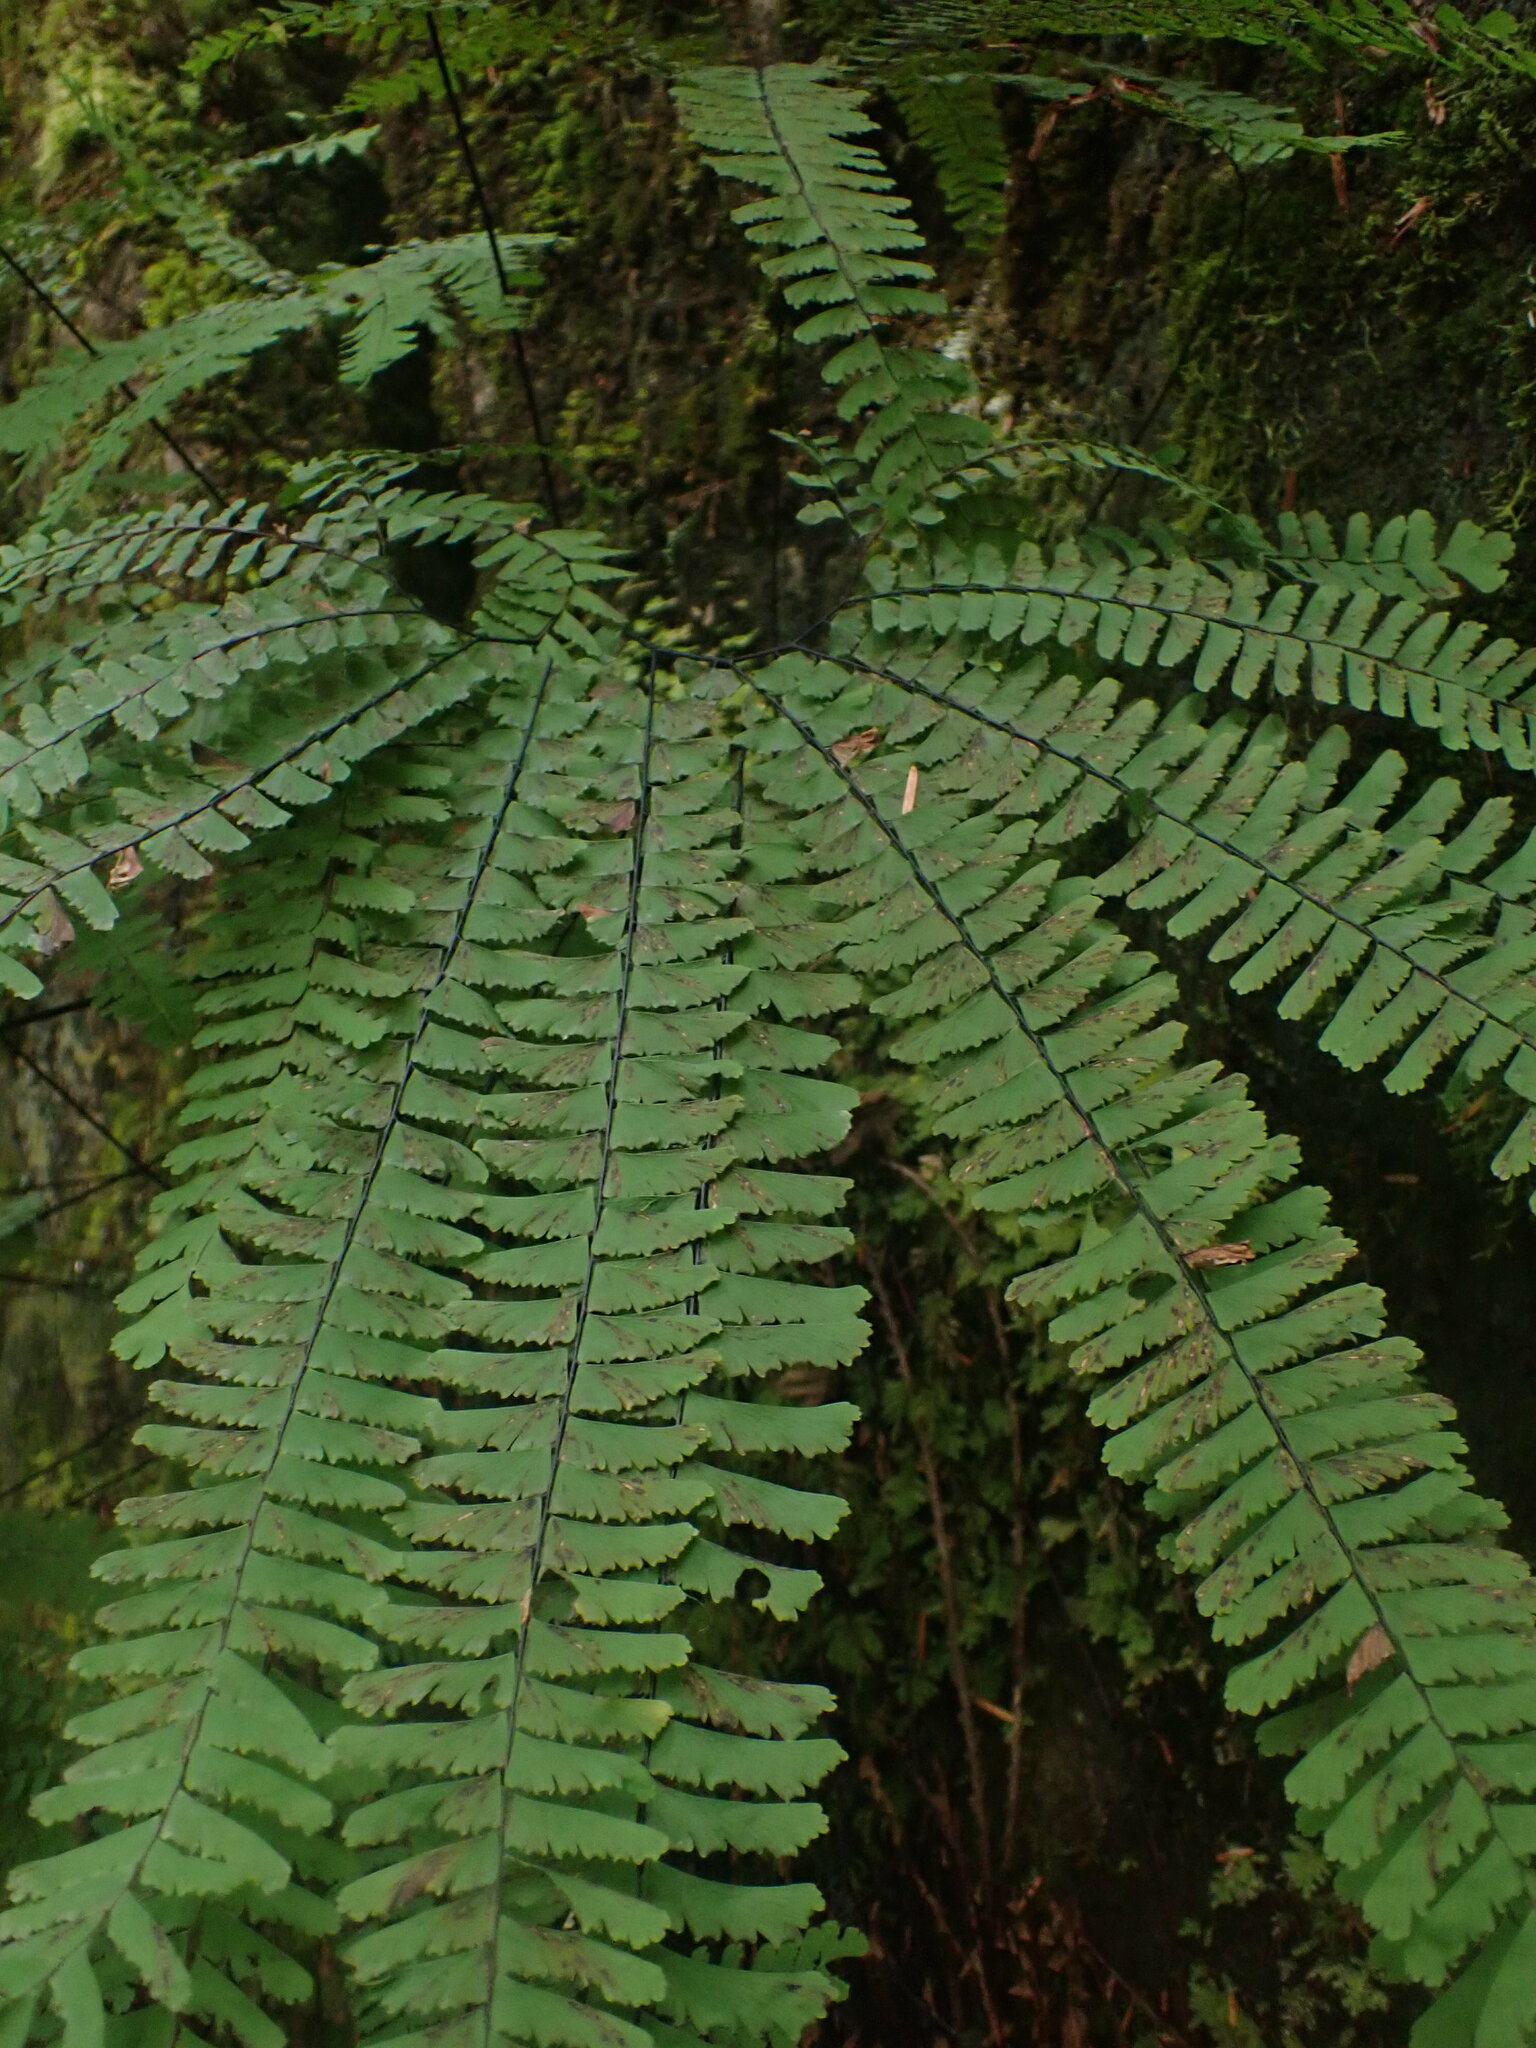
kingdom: Plantae
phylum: Tracheophyta
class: Polypodiopsida
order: Polypodiales
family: Pteridaceae
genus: Adiantum
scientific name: Adiantum aleuticum
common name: Aleutian maidenhair fern
